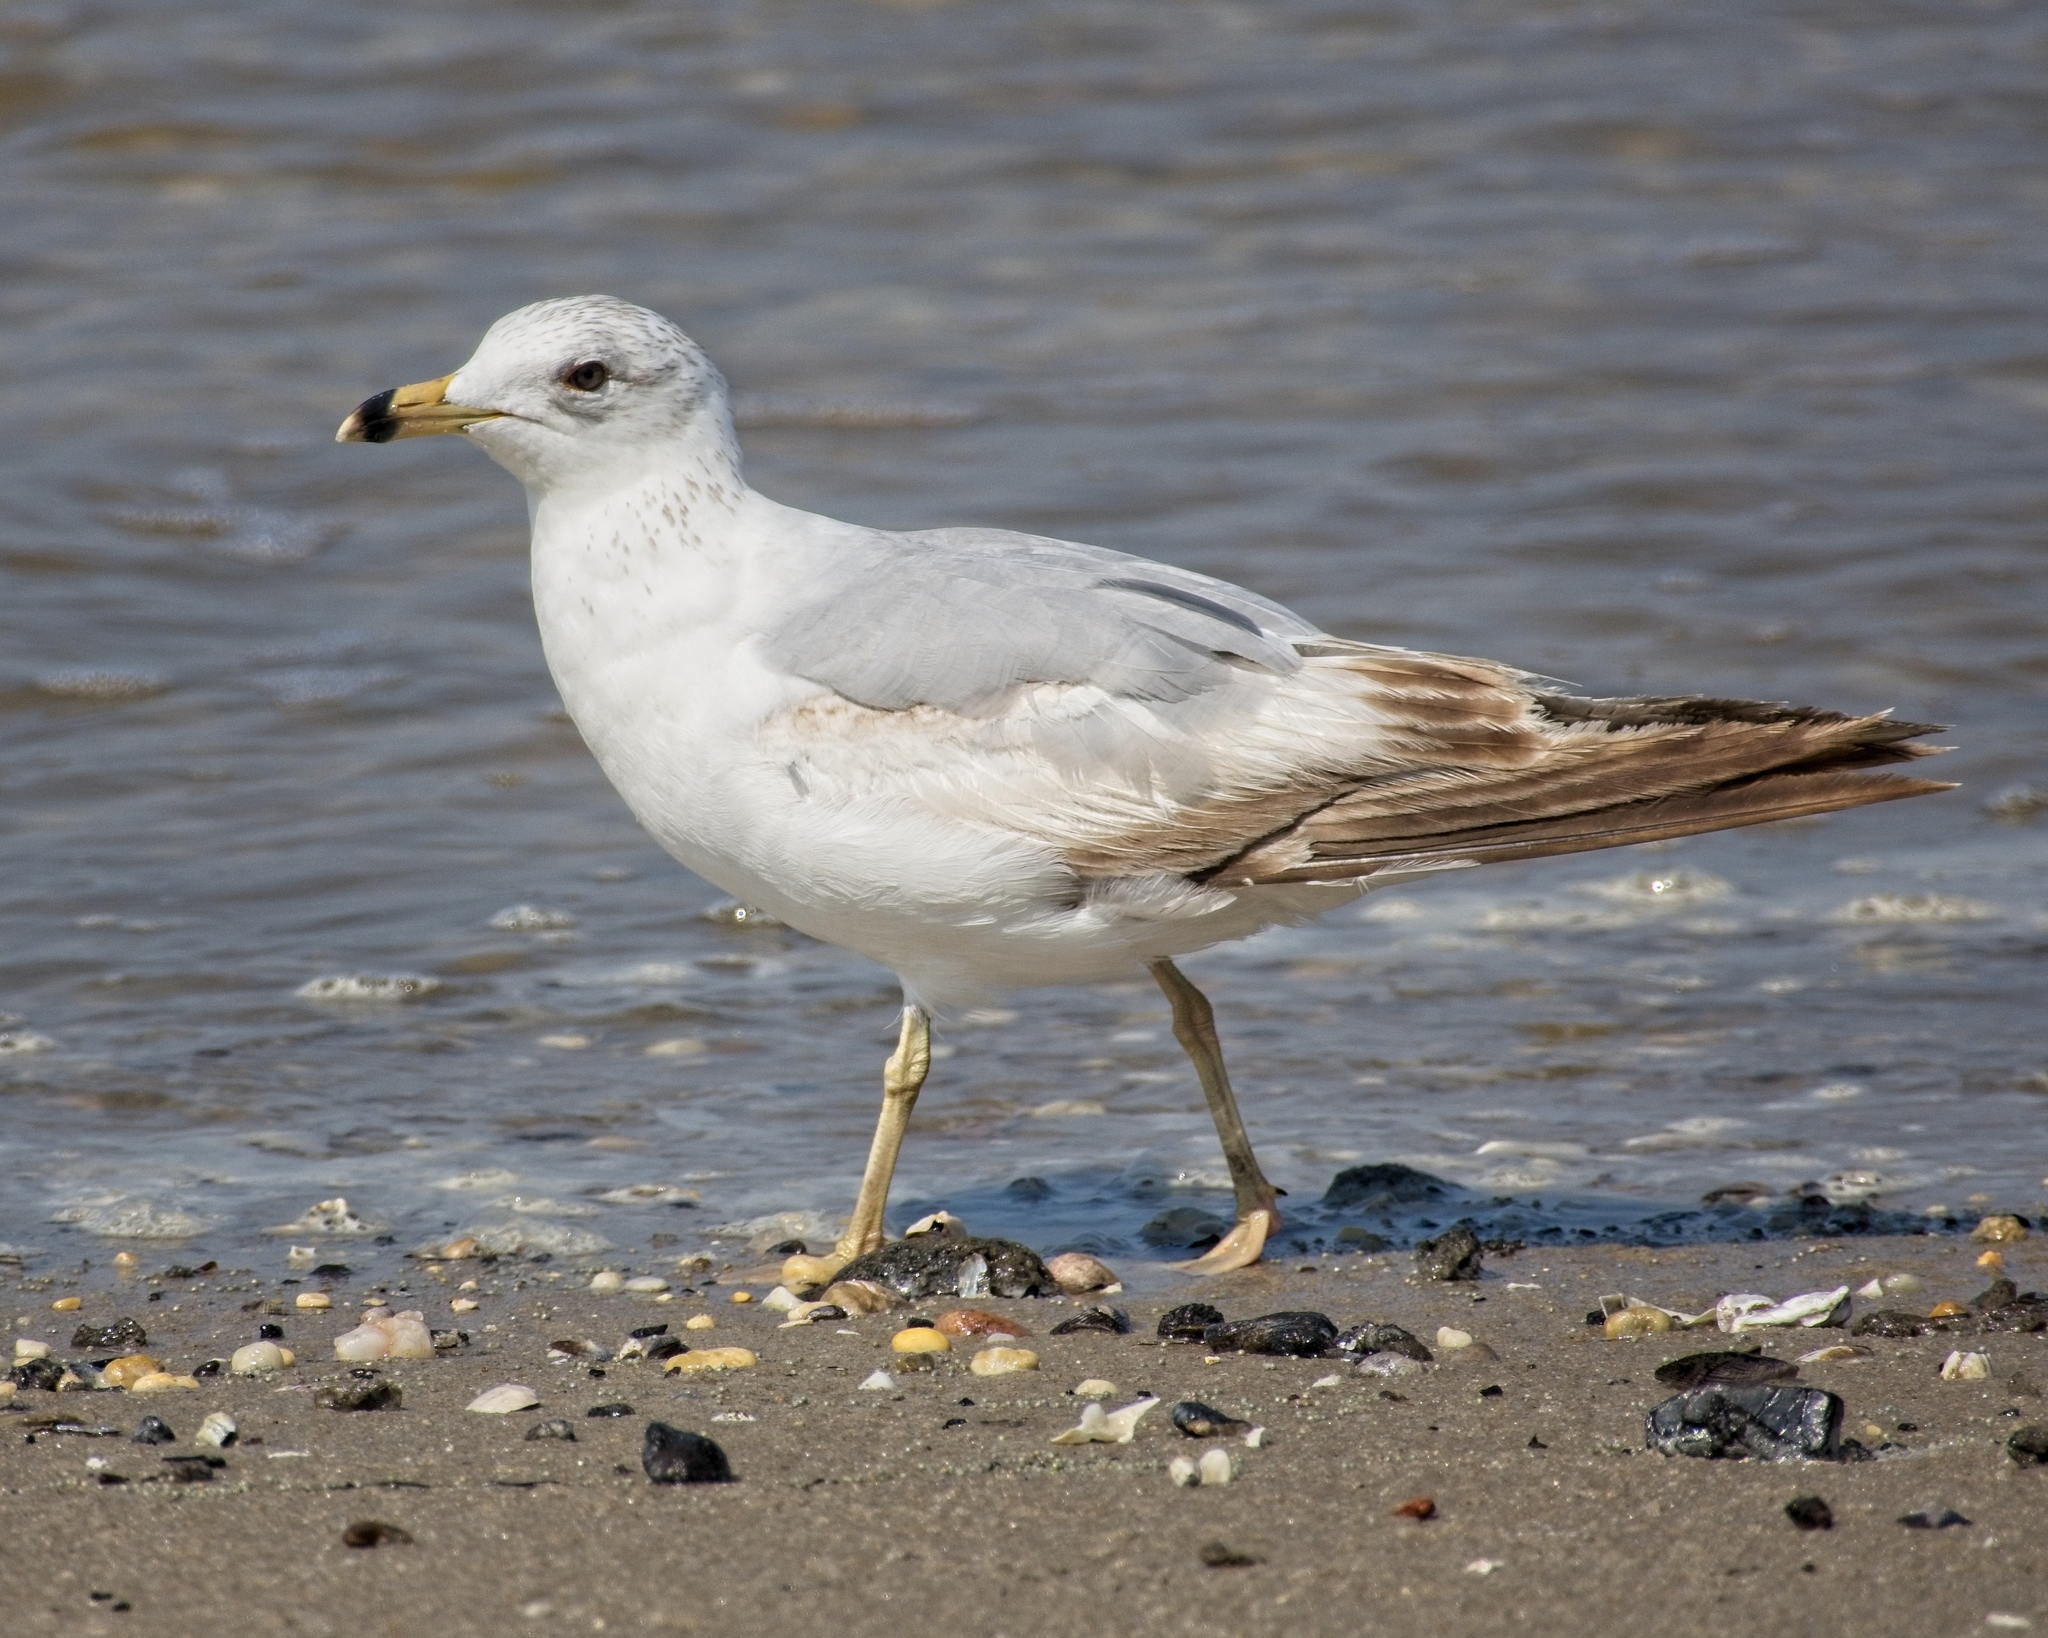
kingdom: Animalia
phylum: Chordata
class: Aves
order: Charadriiformes
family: Laridae
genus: Larus
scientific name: Larus delawarensis
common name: Ring-billed gull
